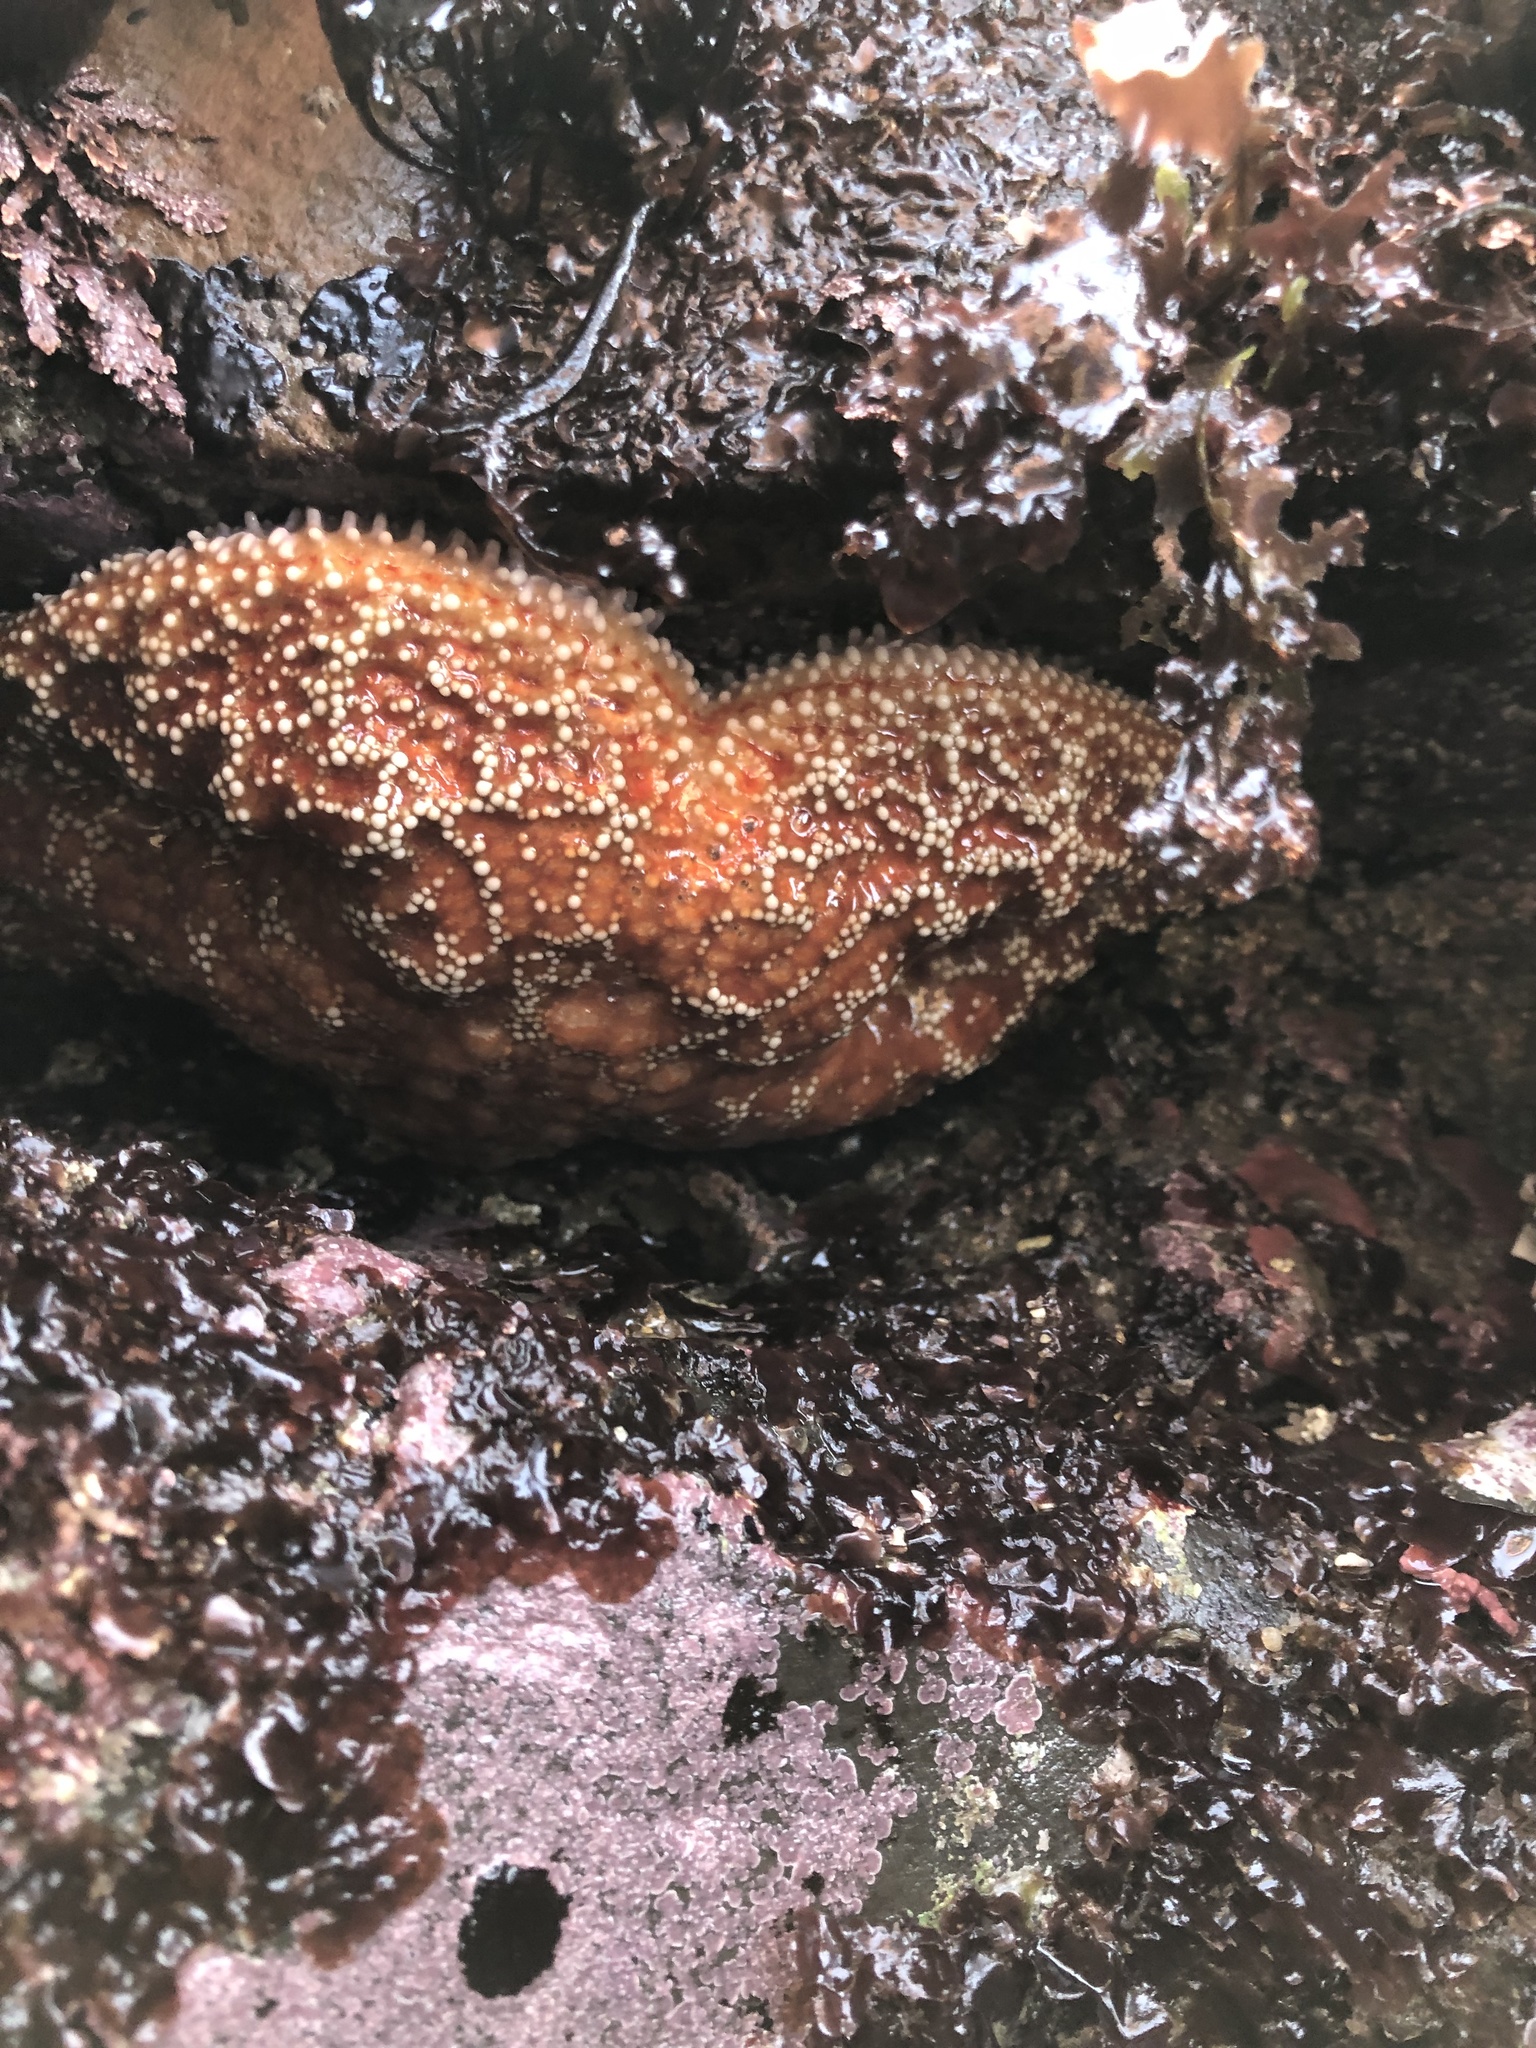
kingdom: Animalia
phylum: Echinodermata
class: Asteroidea
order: Forcipulatida
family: Asteriidae
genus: Pisaster
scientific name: Pisaster ochraceus
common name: Ochre stars
